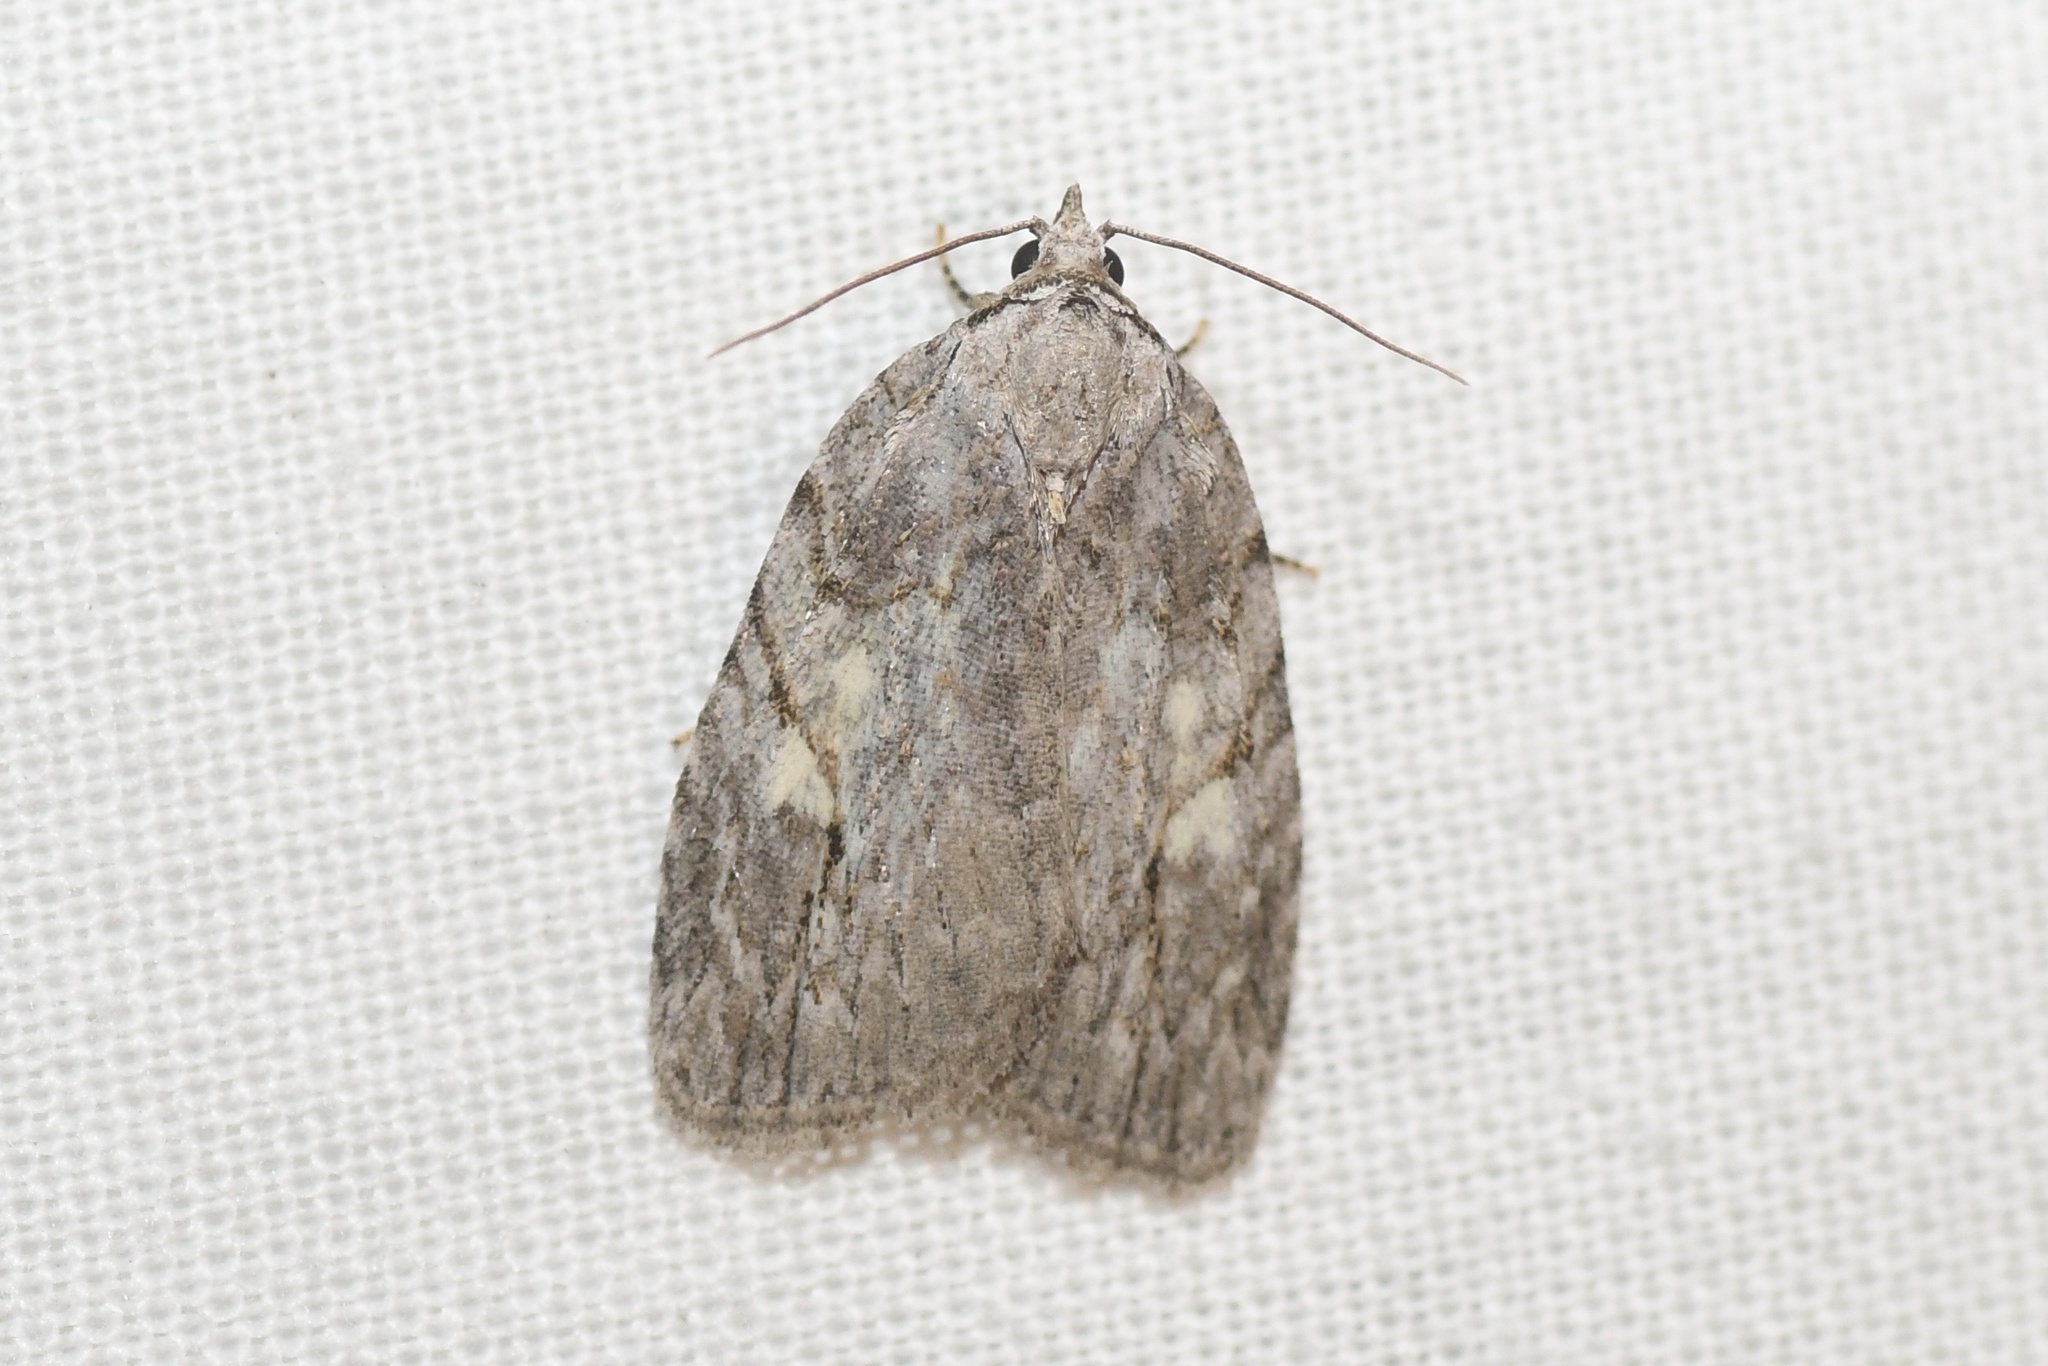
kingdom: Animalia
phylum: Arthropoda
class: Insecta
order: Lepidoptera
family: Noctuidae
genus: Balsa
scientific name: Balsa labecula
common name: White-blotched balsa moth
